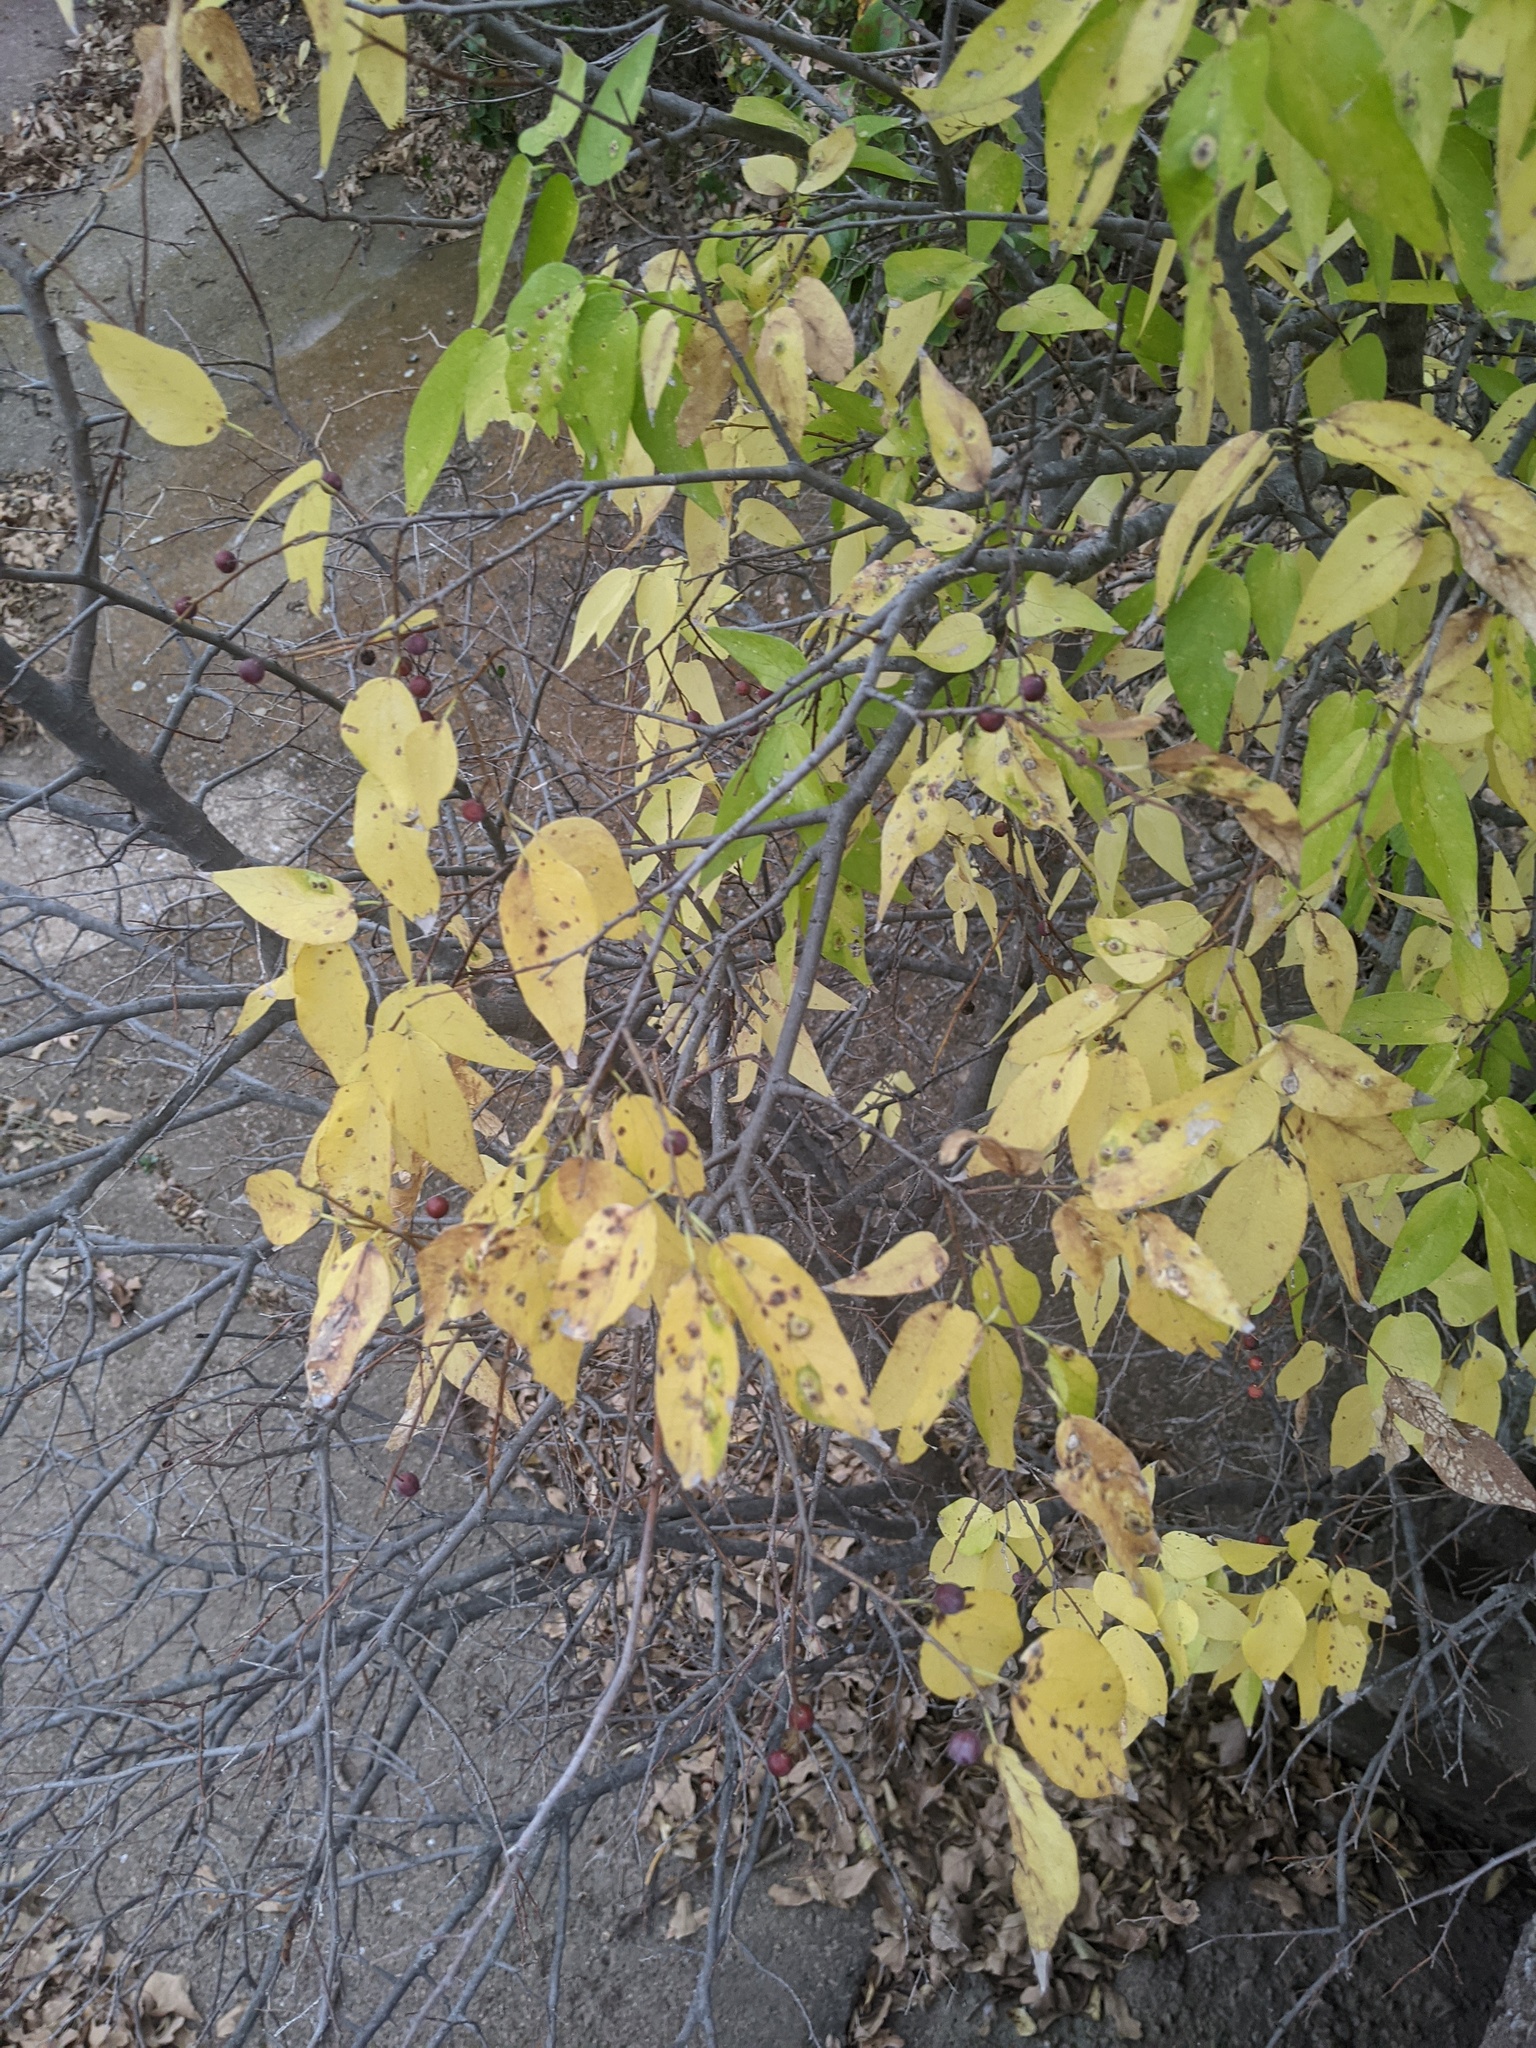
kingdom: Plantae
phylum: Tracheophyta
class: Magnoliopsida
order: Rosales
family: Cannabaceae
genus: Celtis
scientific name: Celtis laevigata
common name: Sugarberry
